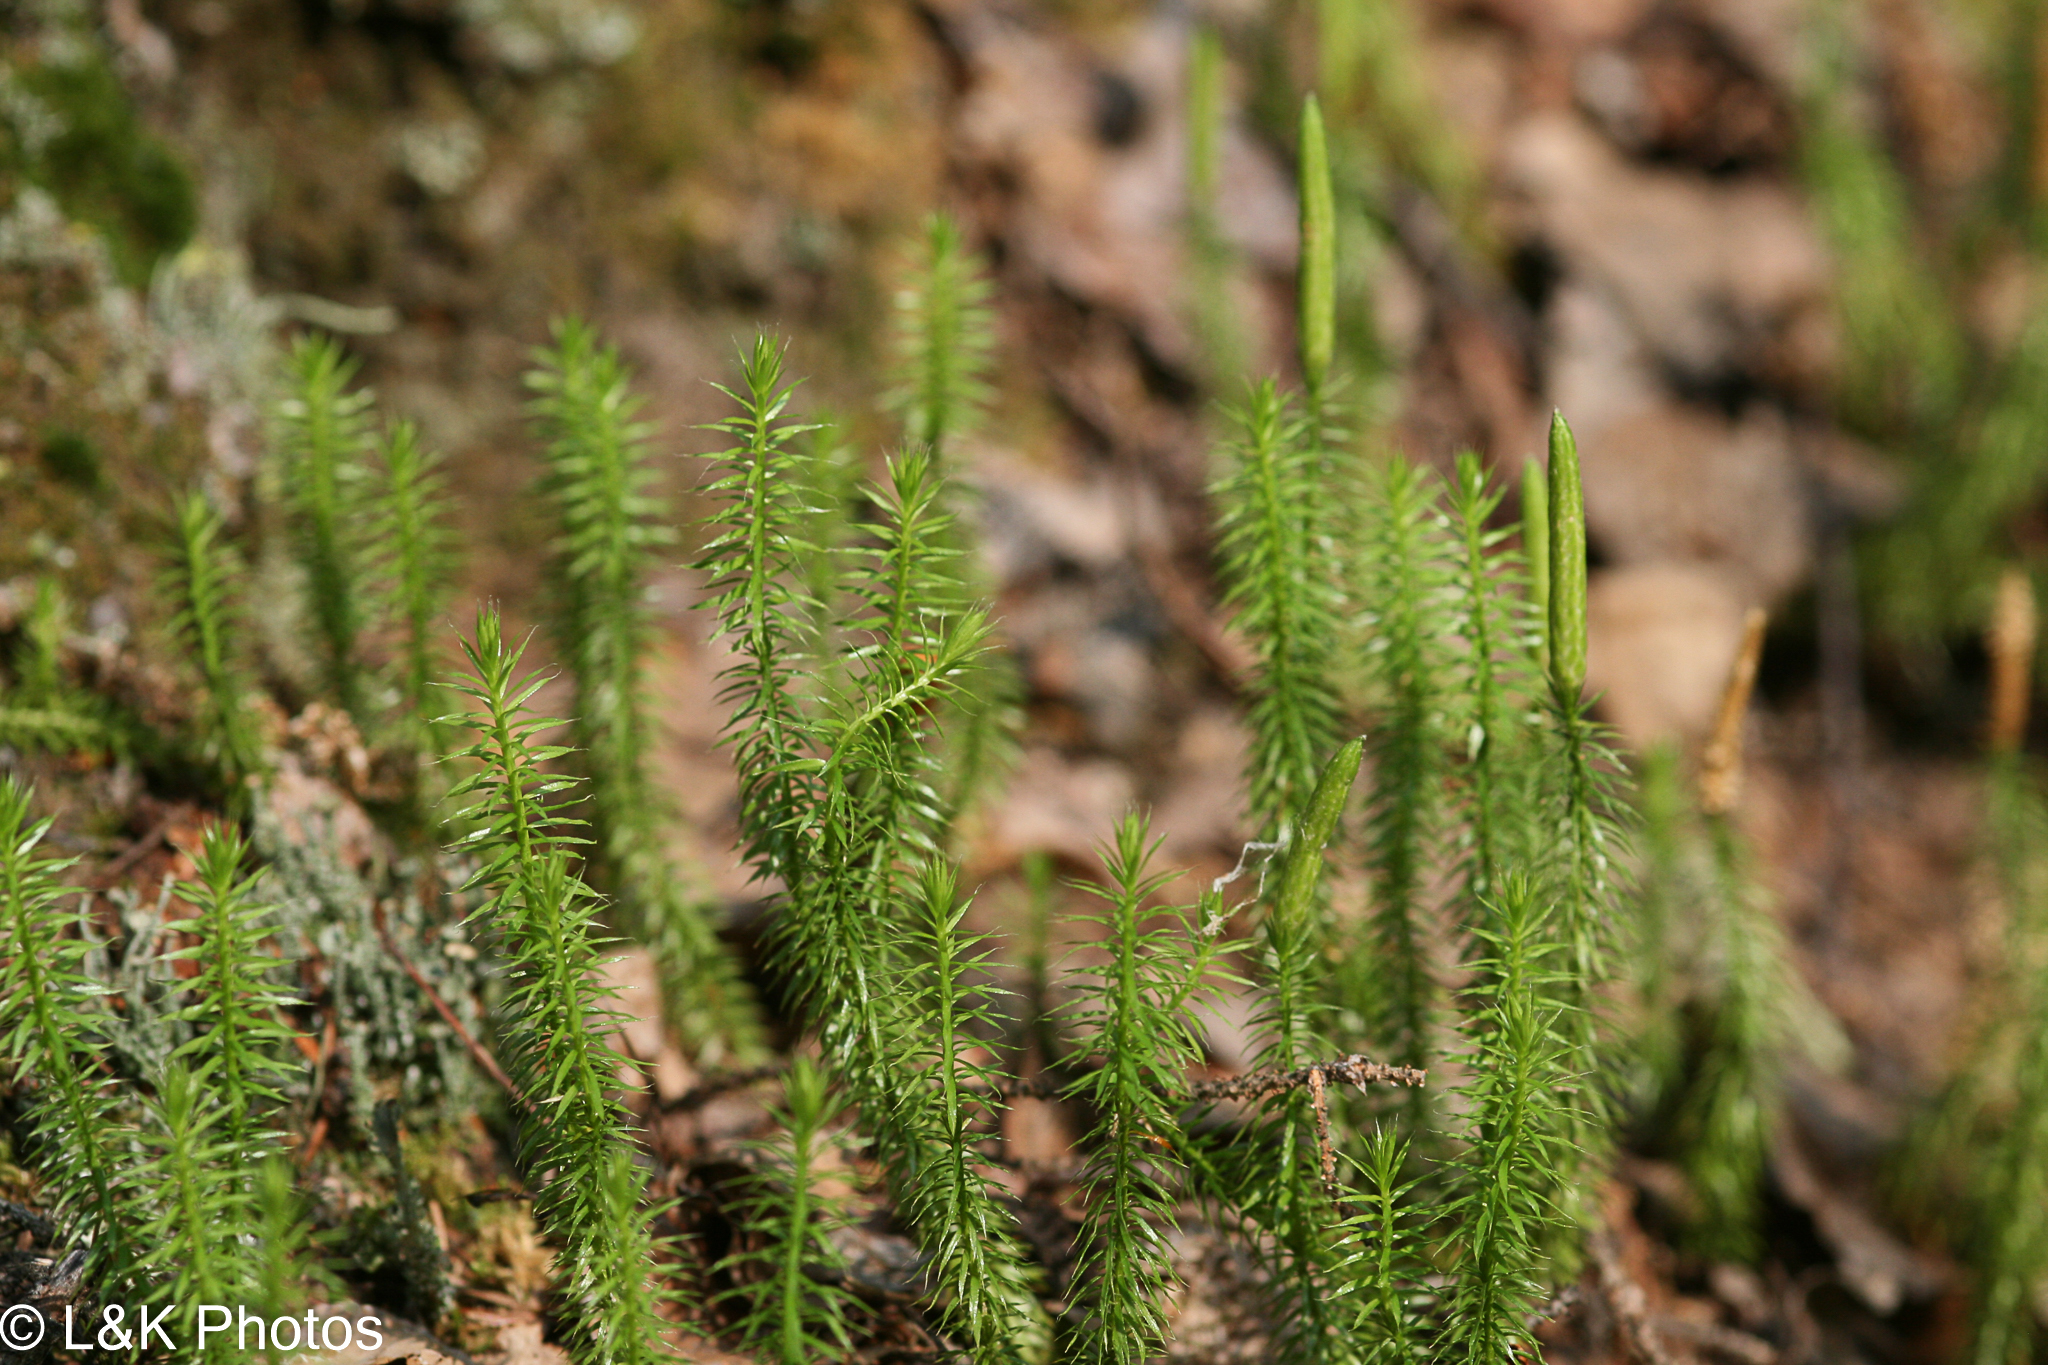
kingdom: Plantae
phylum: Tracheophyta
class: Lycopodiopsida
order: Lycopodiales
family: Lycopodiaceae
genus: Spinulum
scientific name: Spinulum annotinum
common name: Interrupted club-moss
